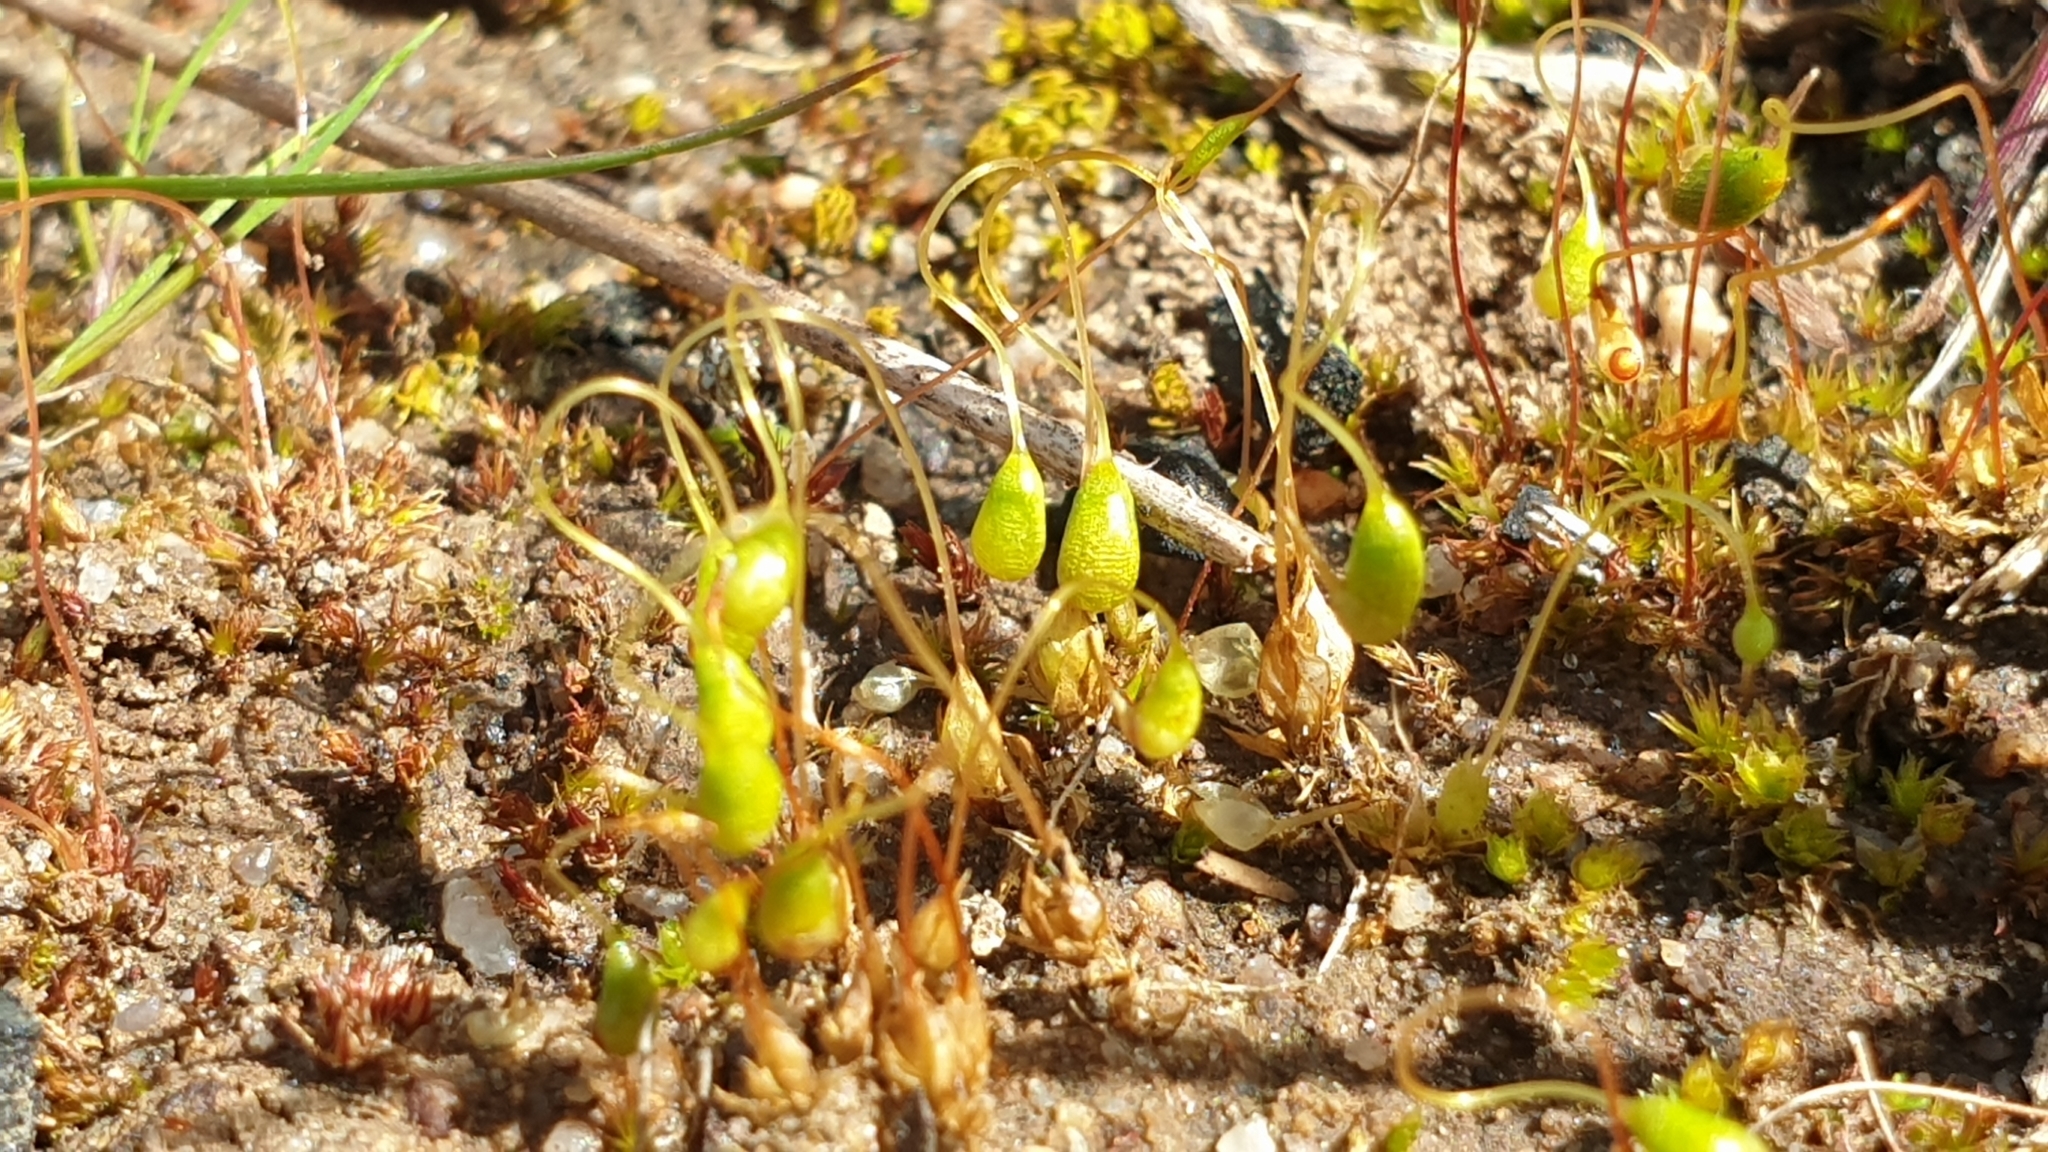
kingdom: Plantae
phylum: Bryophyta
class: Bryopsida
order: Funariales
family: Funariaceae
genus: Funaria
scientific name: Funaria hygrometrica
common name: Common cord moss
